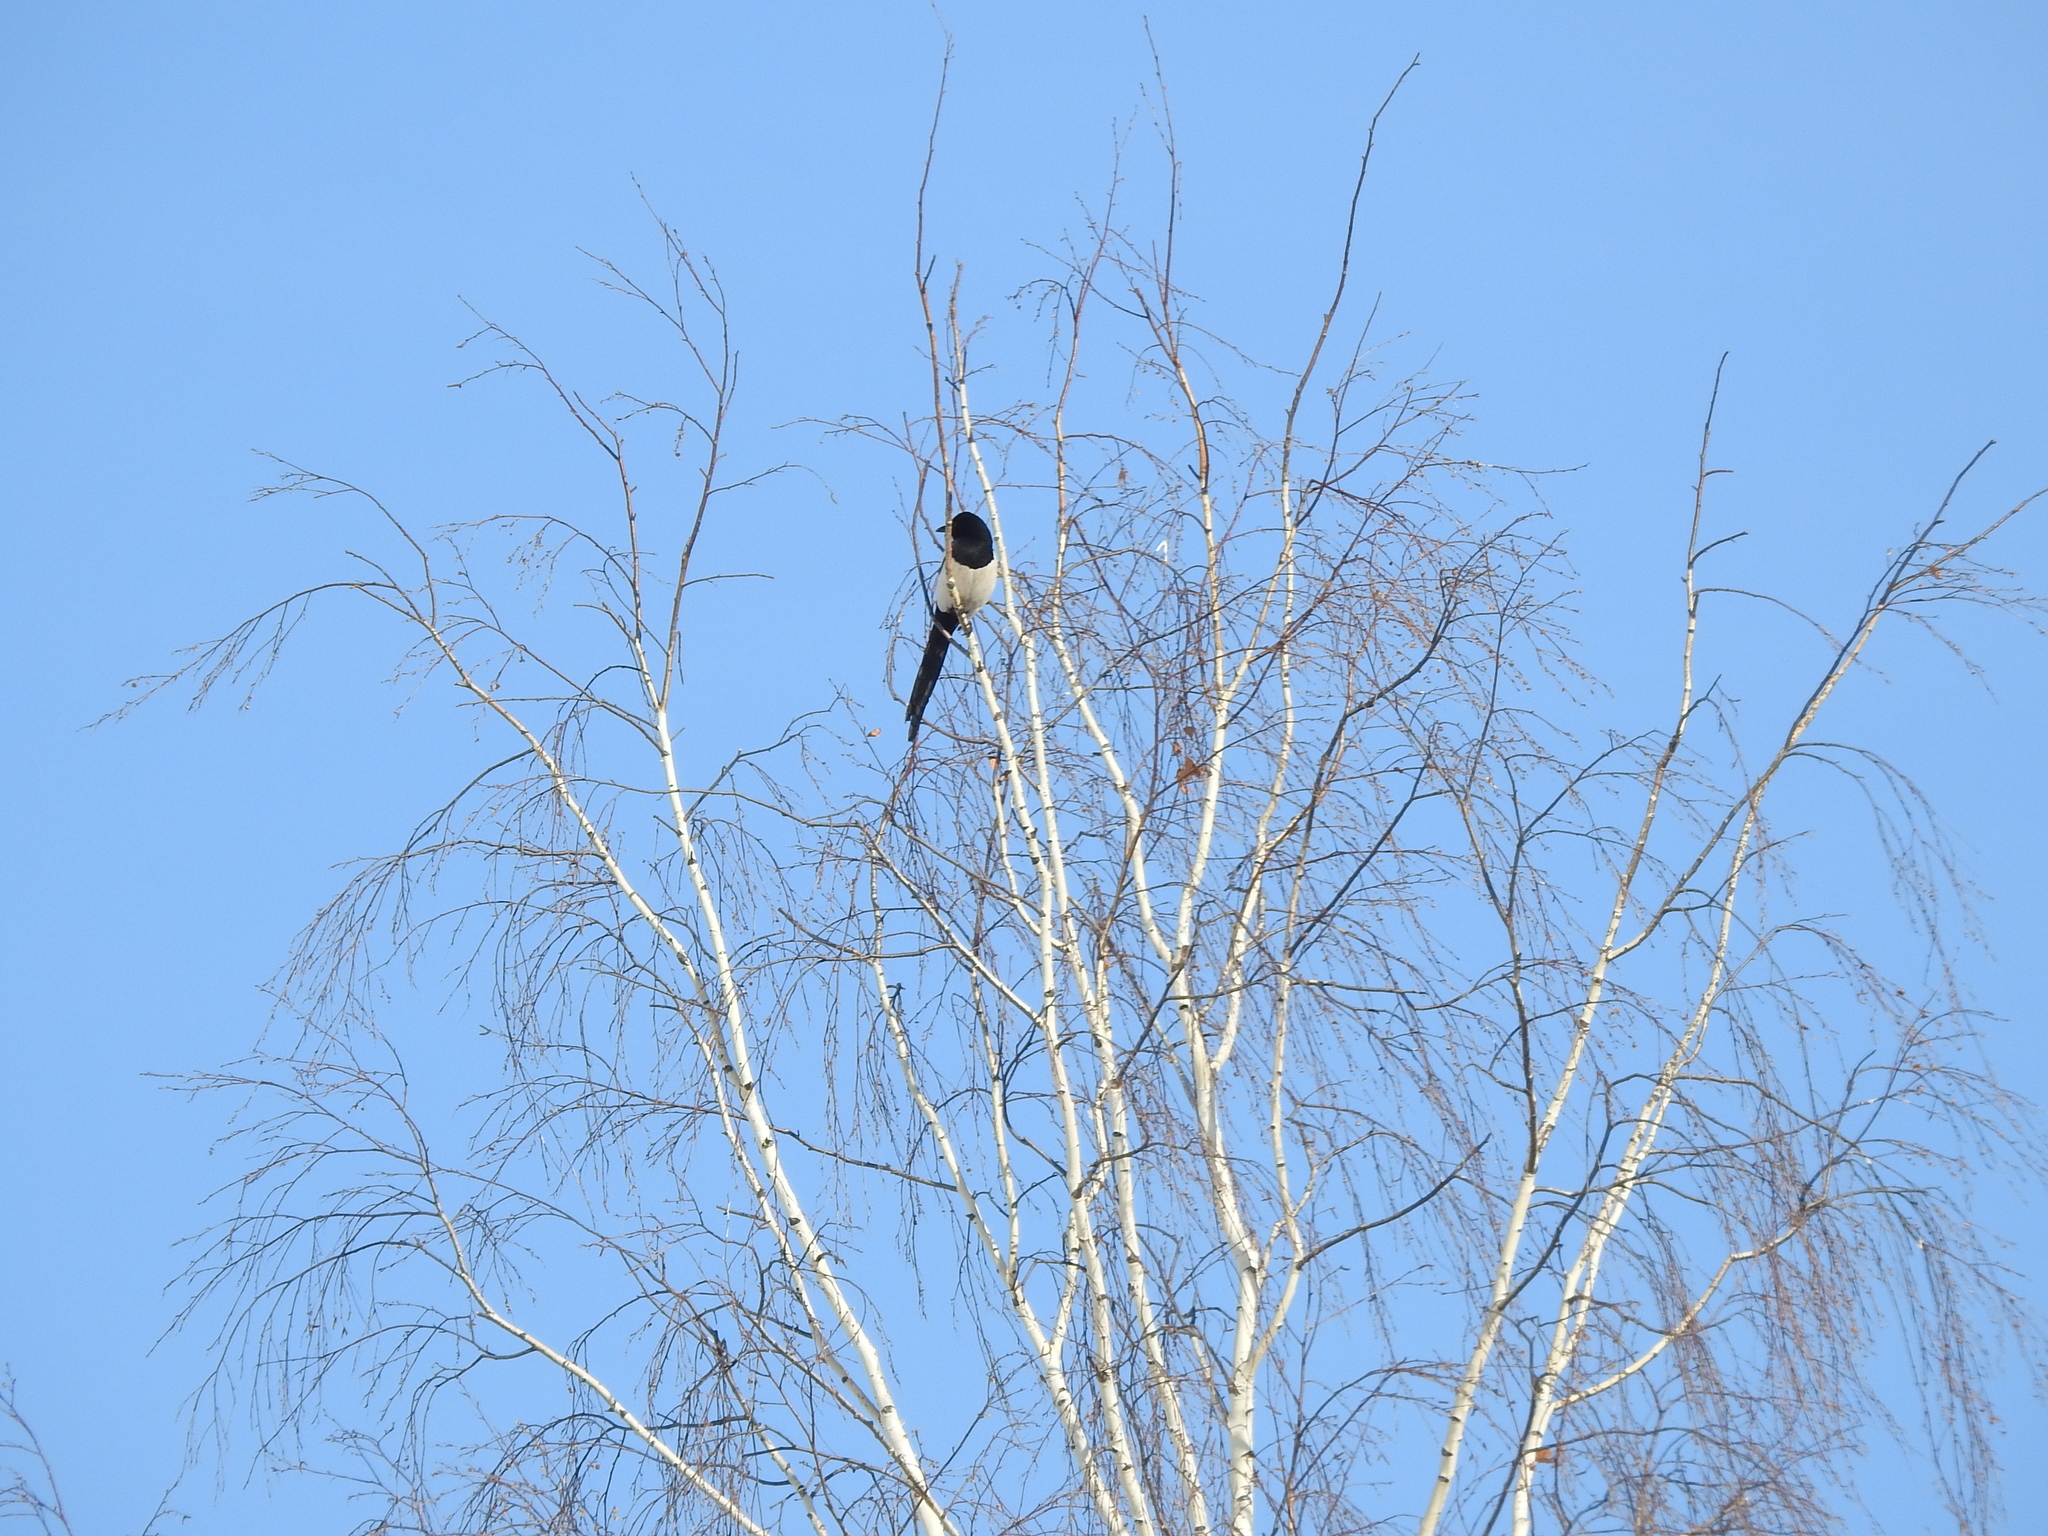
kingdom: Animalia
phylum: Chordata
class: Aves
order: Passeriformes
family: Corvidae
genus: Pica
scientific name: Pica pica
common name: Eurasian magpie
